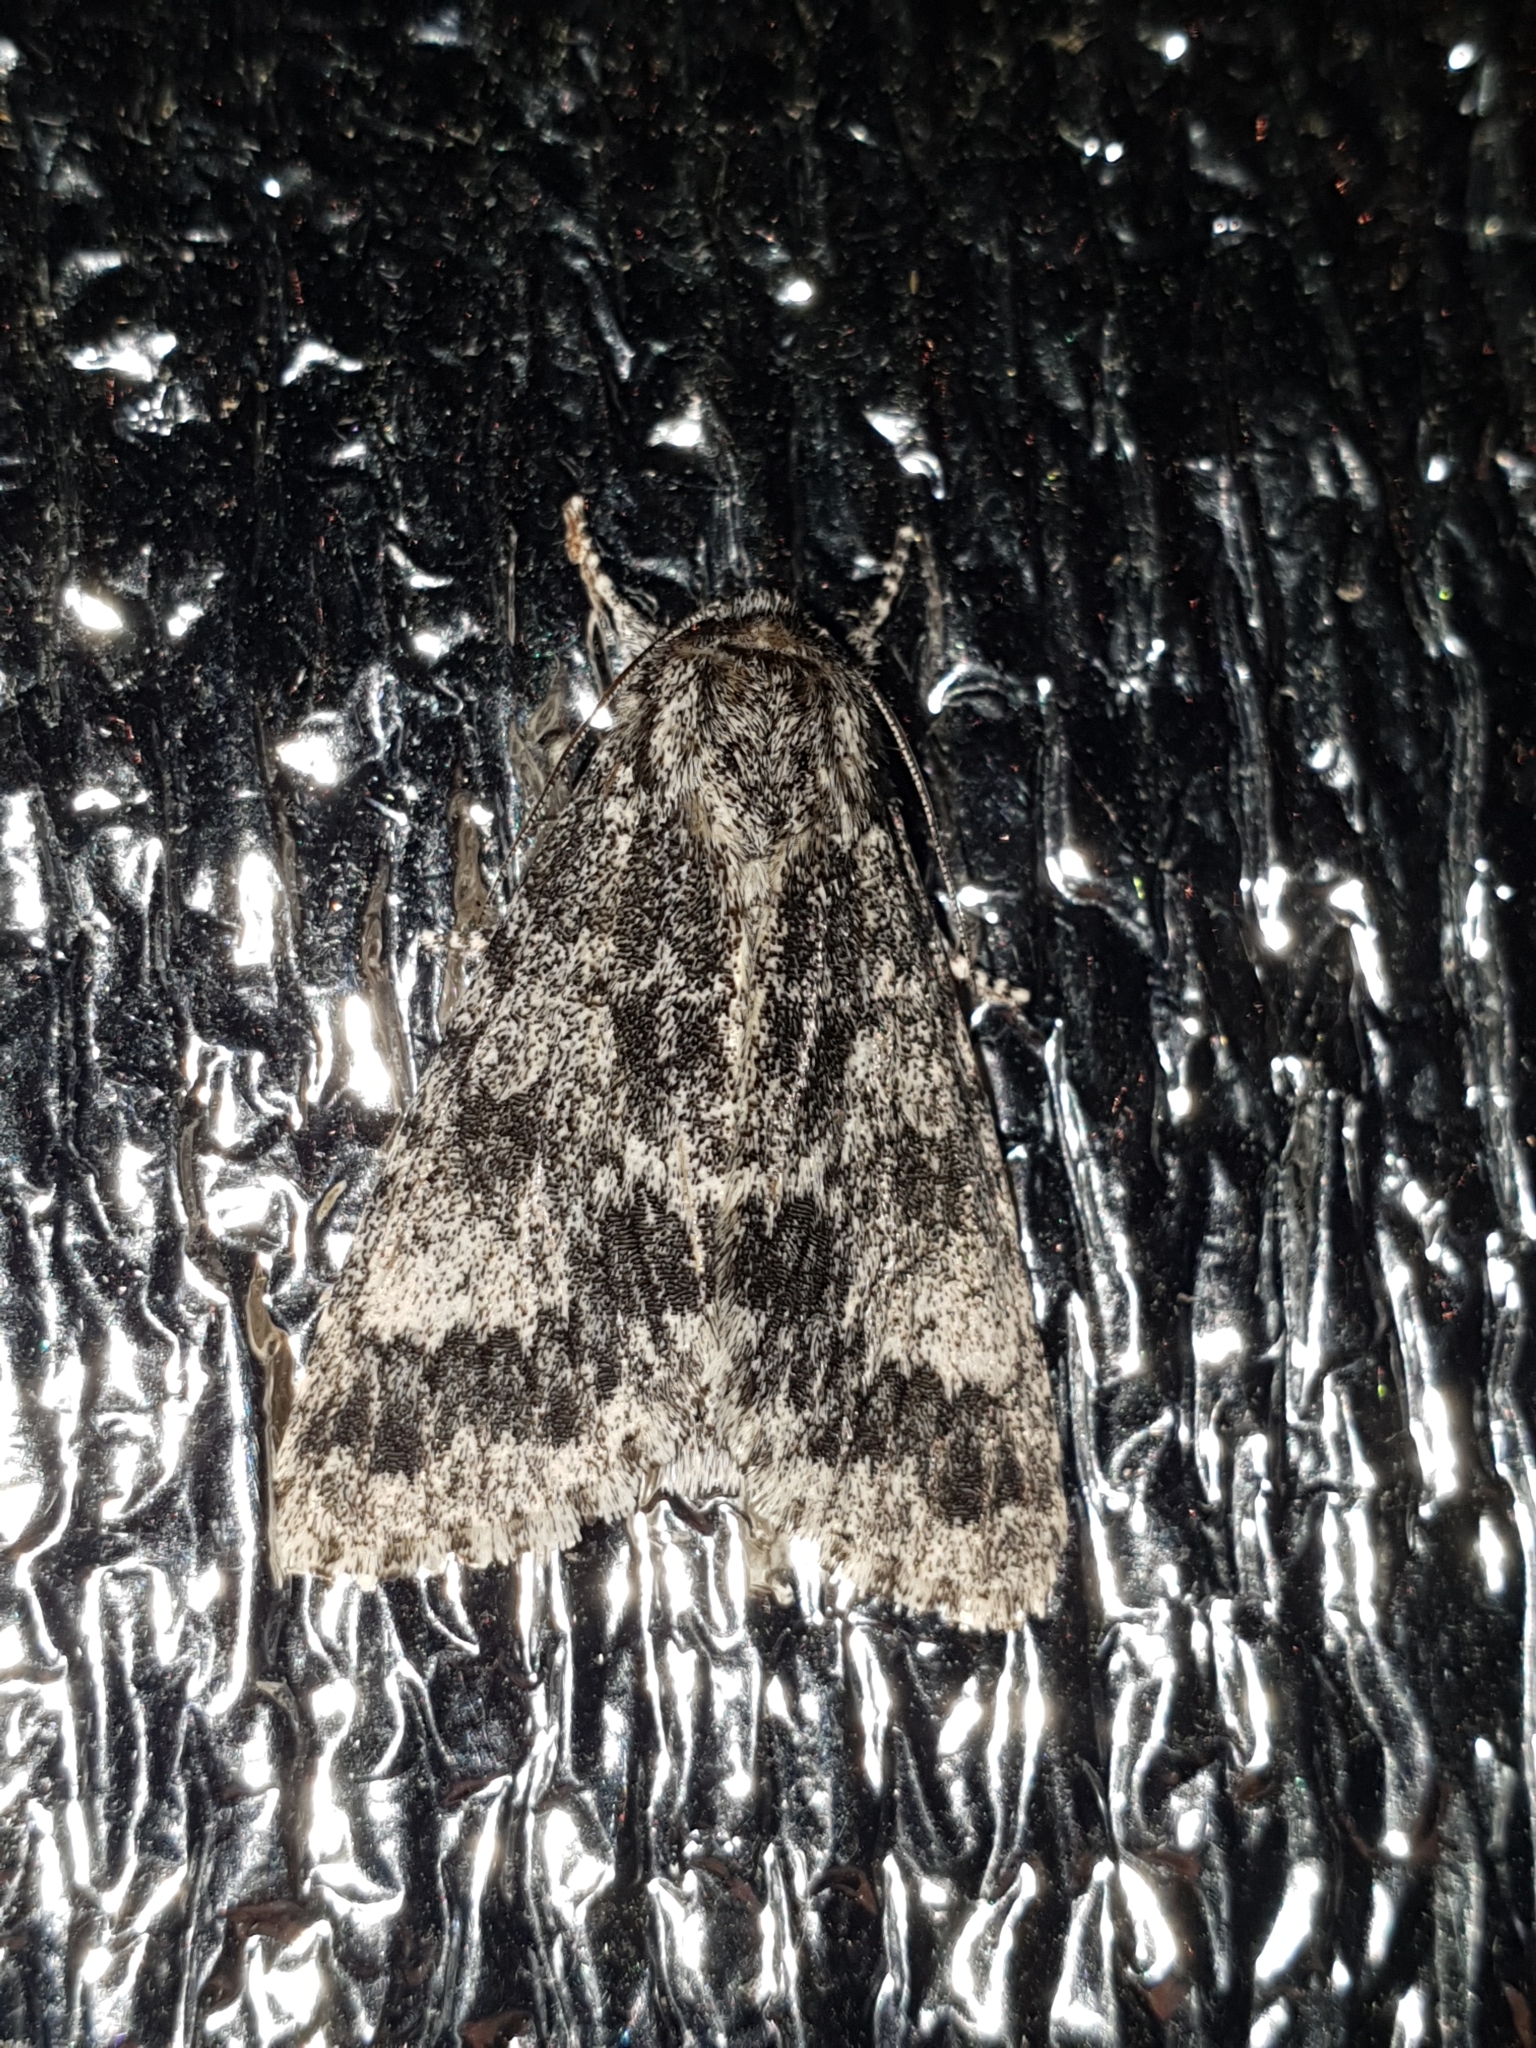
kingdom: Animalia
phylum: Arthropoda
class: Insecta
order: Lepidoptera
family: Noctuidae
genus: Acronicta
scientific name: Acronicta megacephala
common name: Poplar grey
